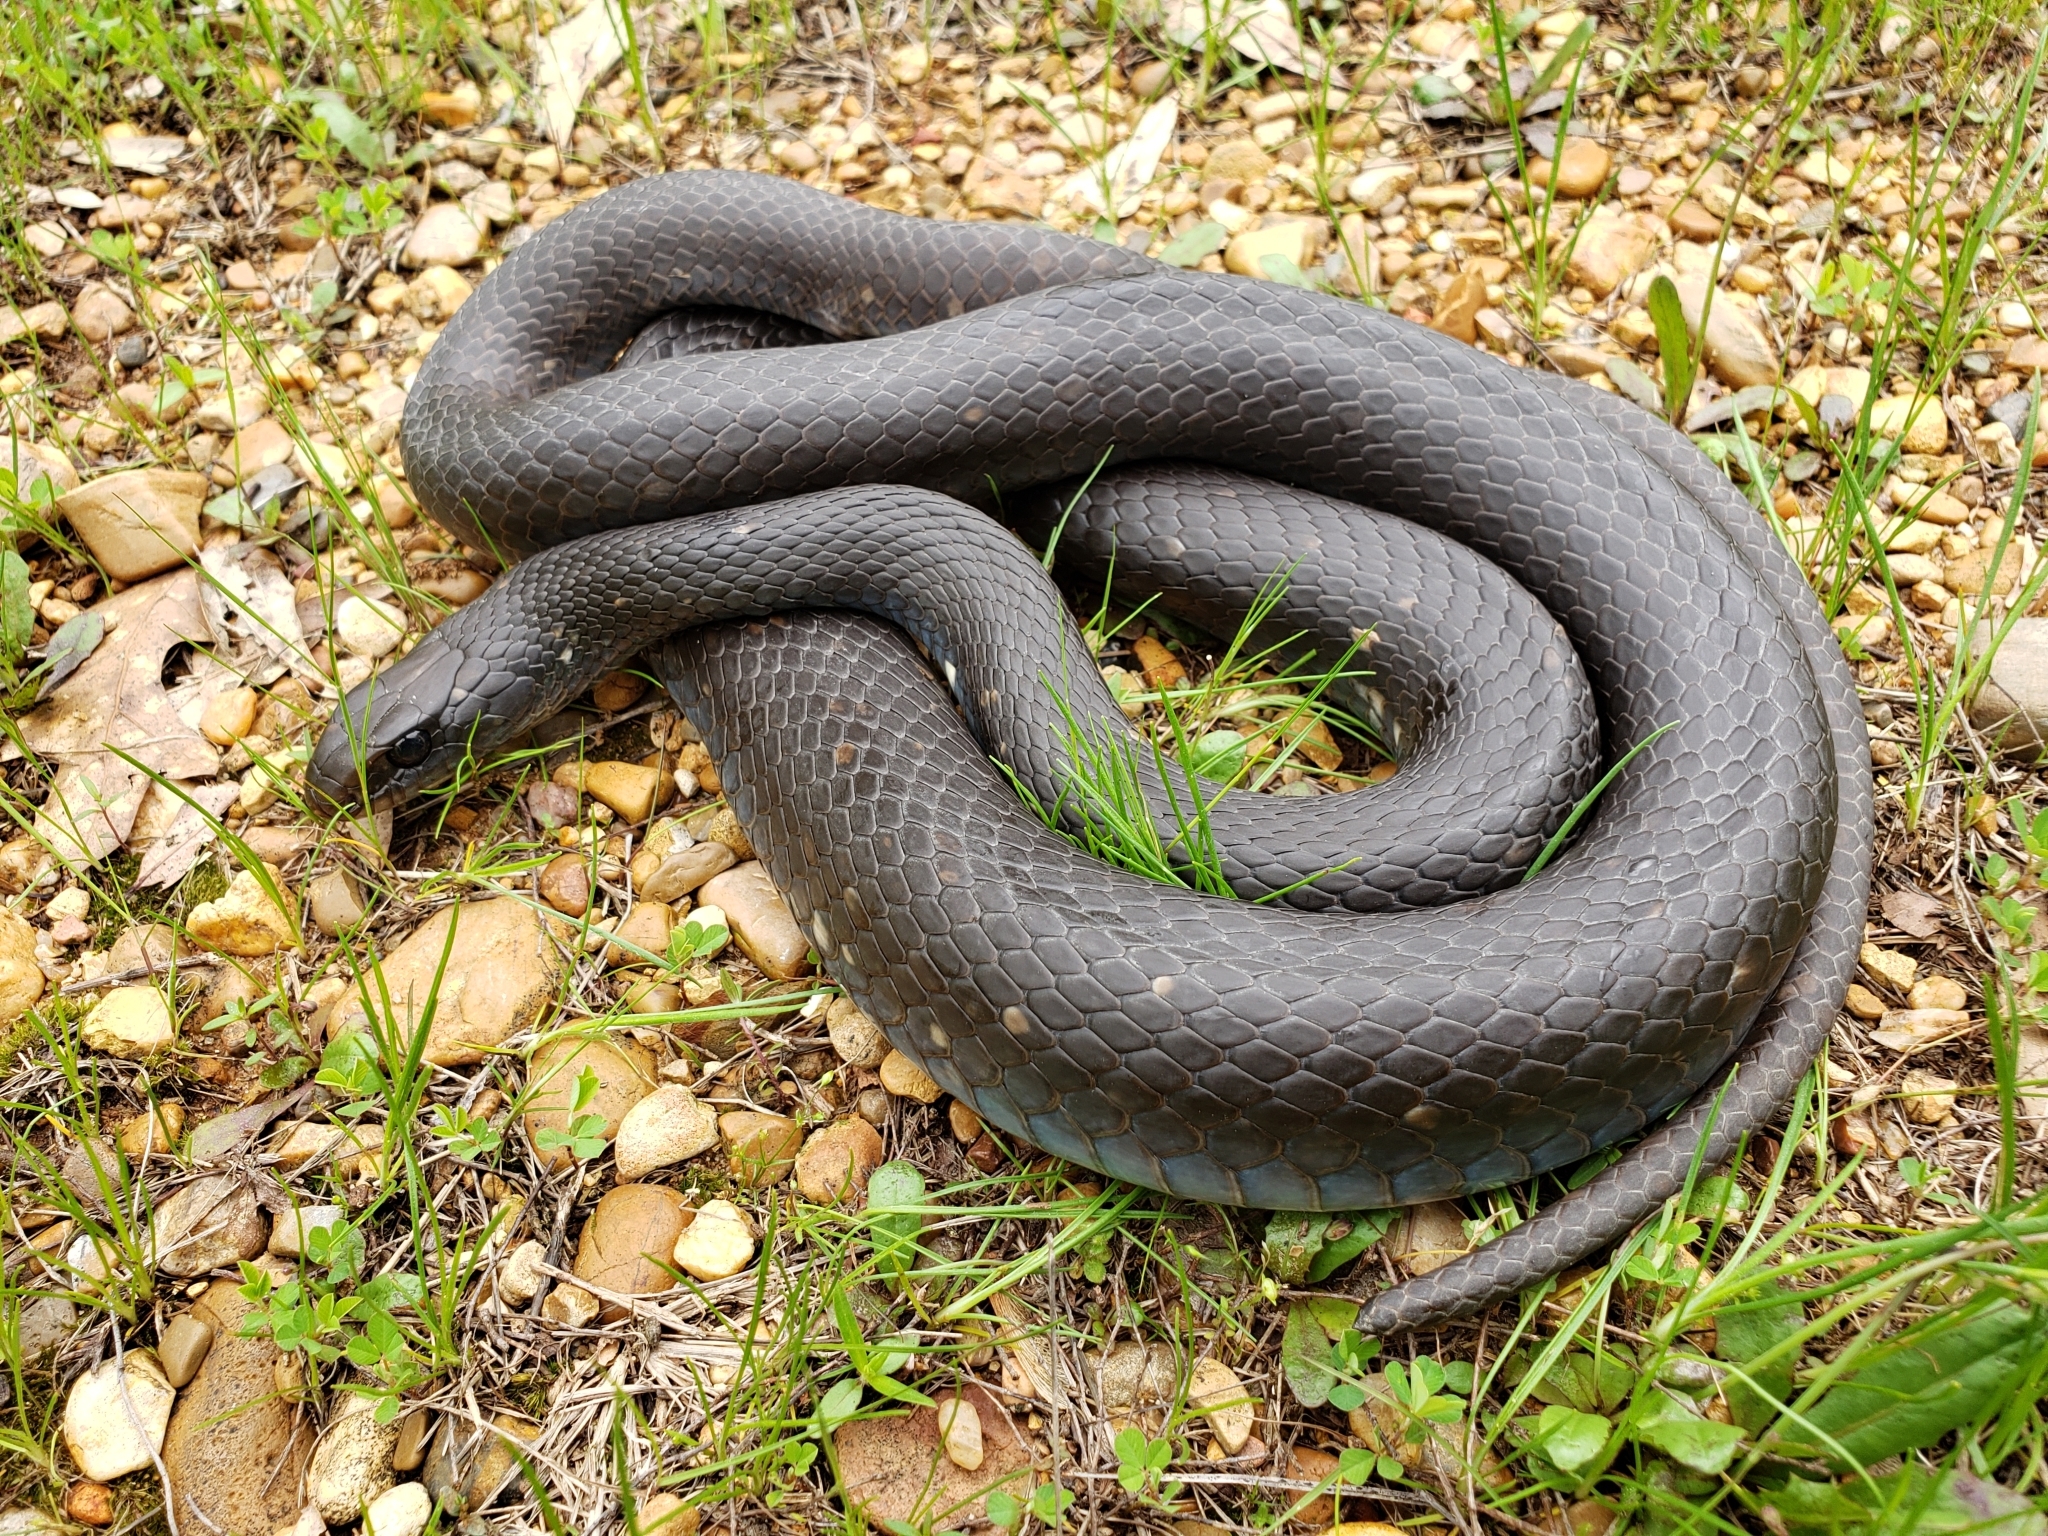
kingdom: Animalia
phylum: Chordata
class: Squamata
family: Colubridae
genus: Coluber
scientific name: Coluber constrictor
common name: Eastern racer
